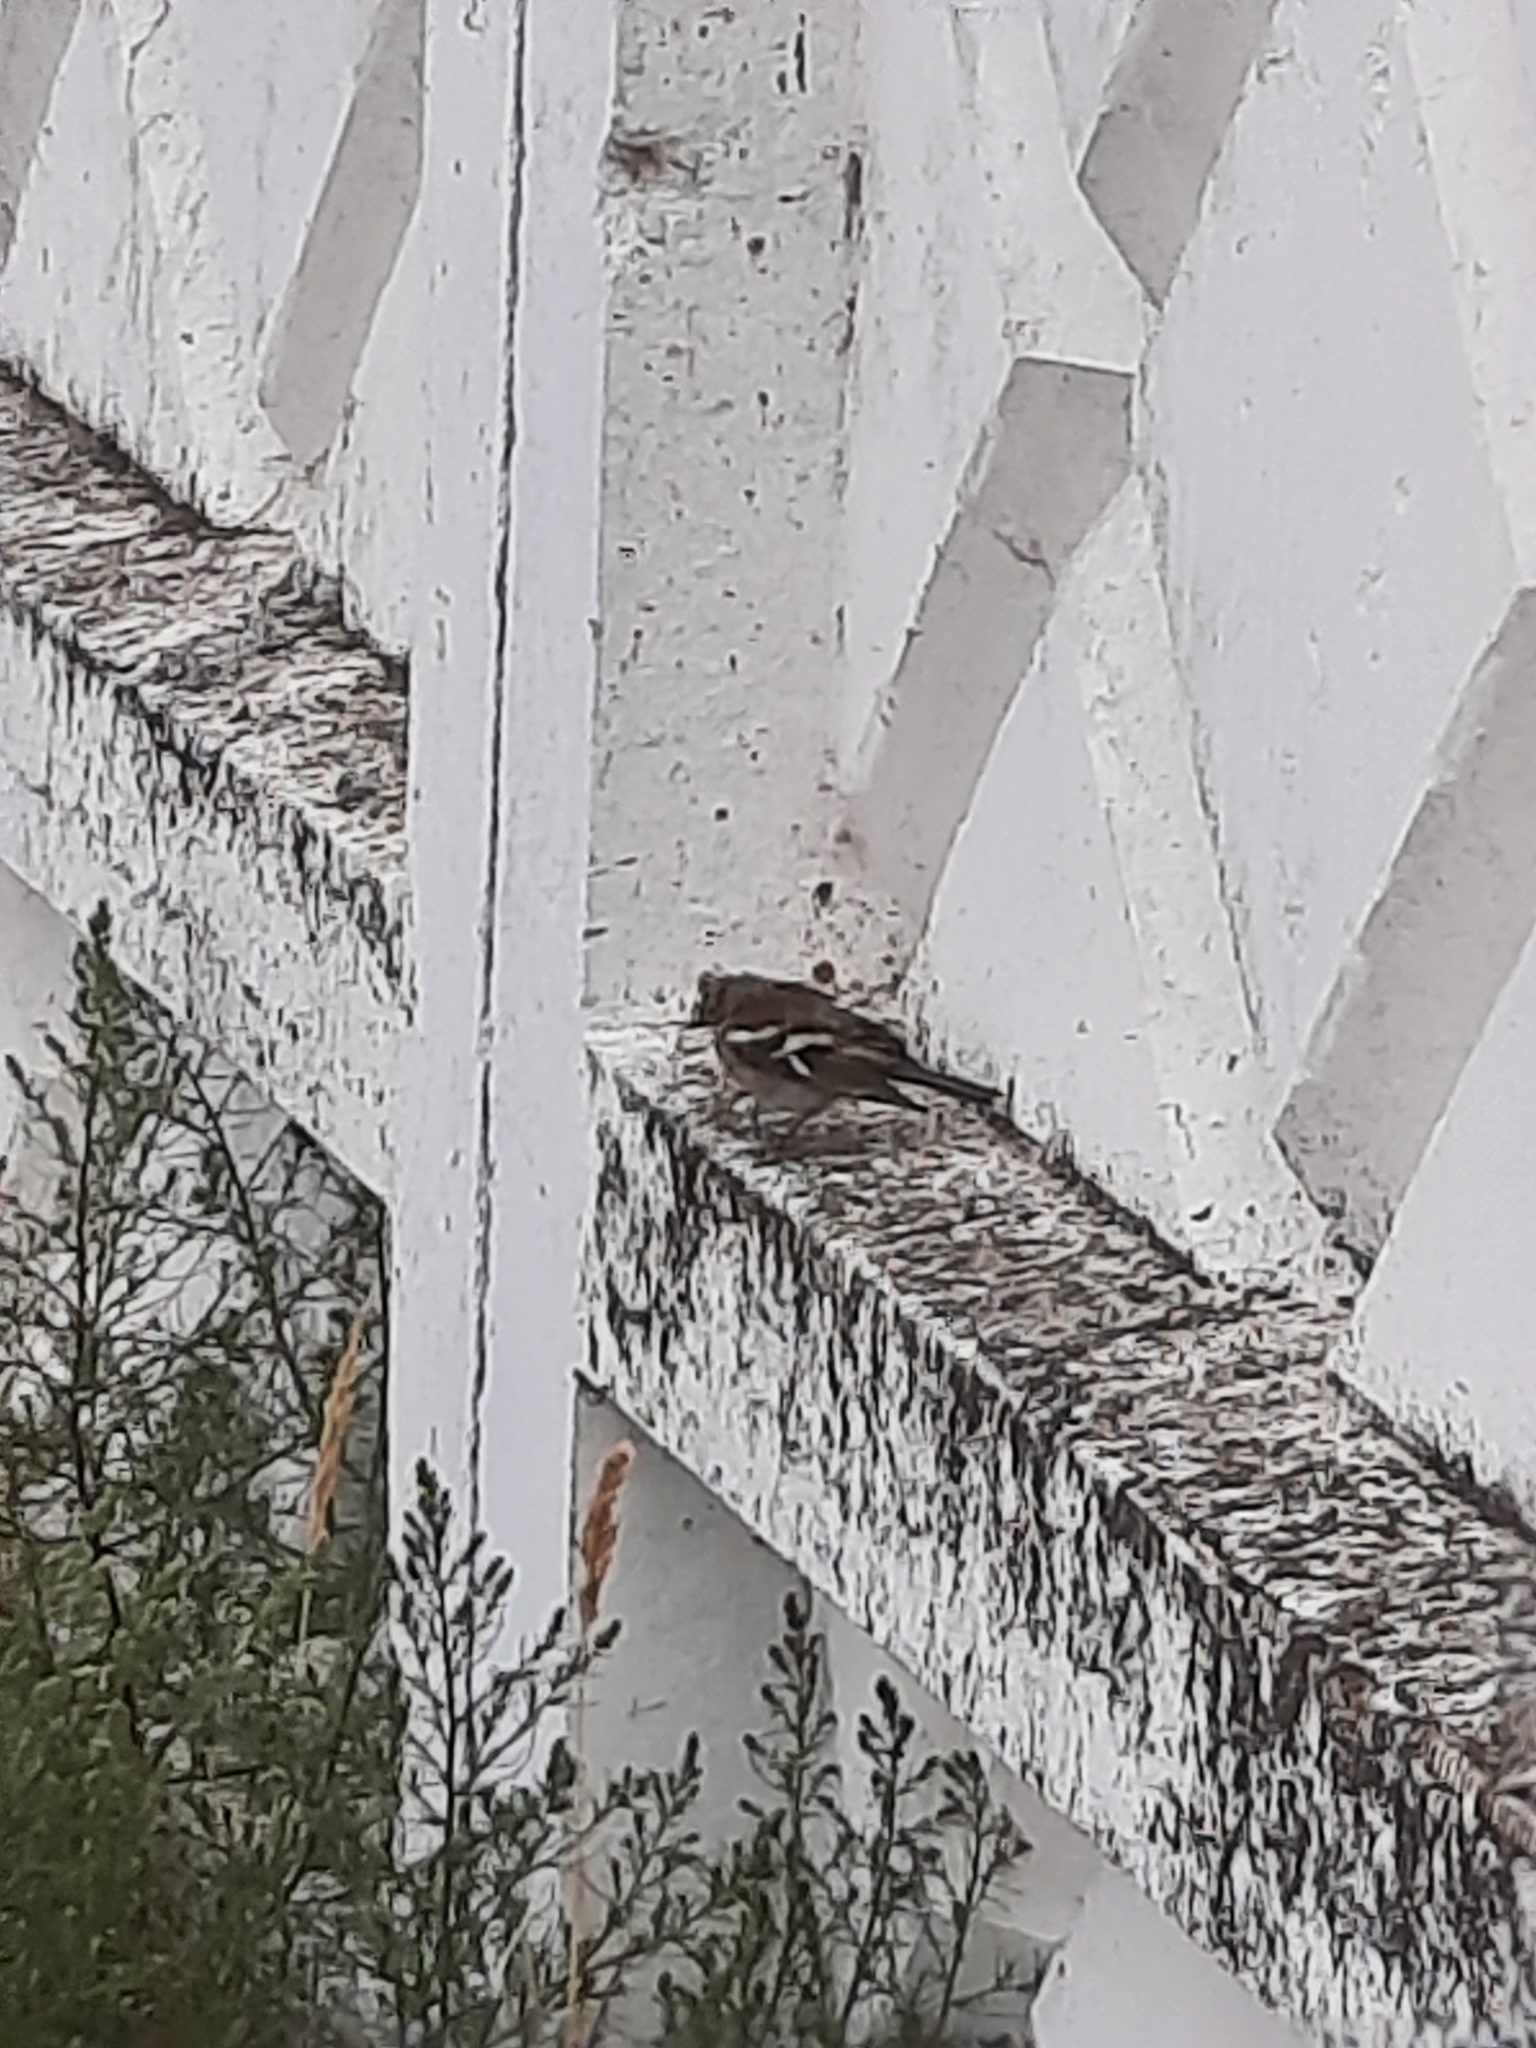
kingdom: Animalia
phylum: Chordata
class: Aves
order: Passeriformes
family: Fringillidae
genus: Fringilla
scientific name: Fringilla coelebs
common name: Common chaffinch
